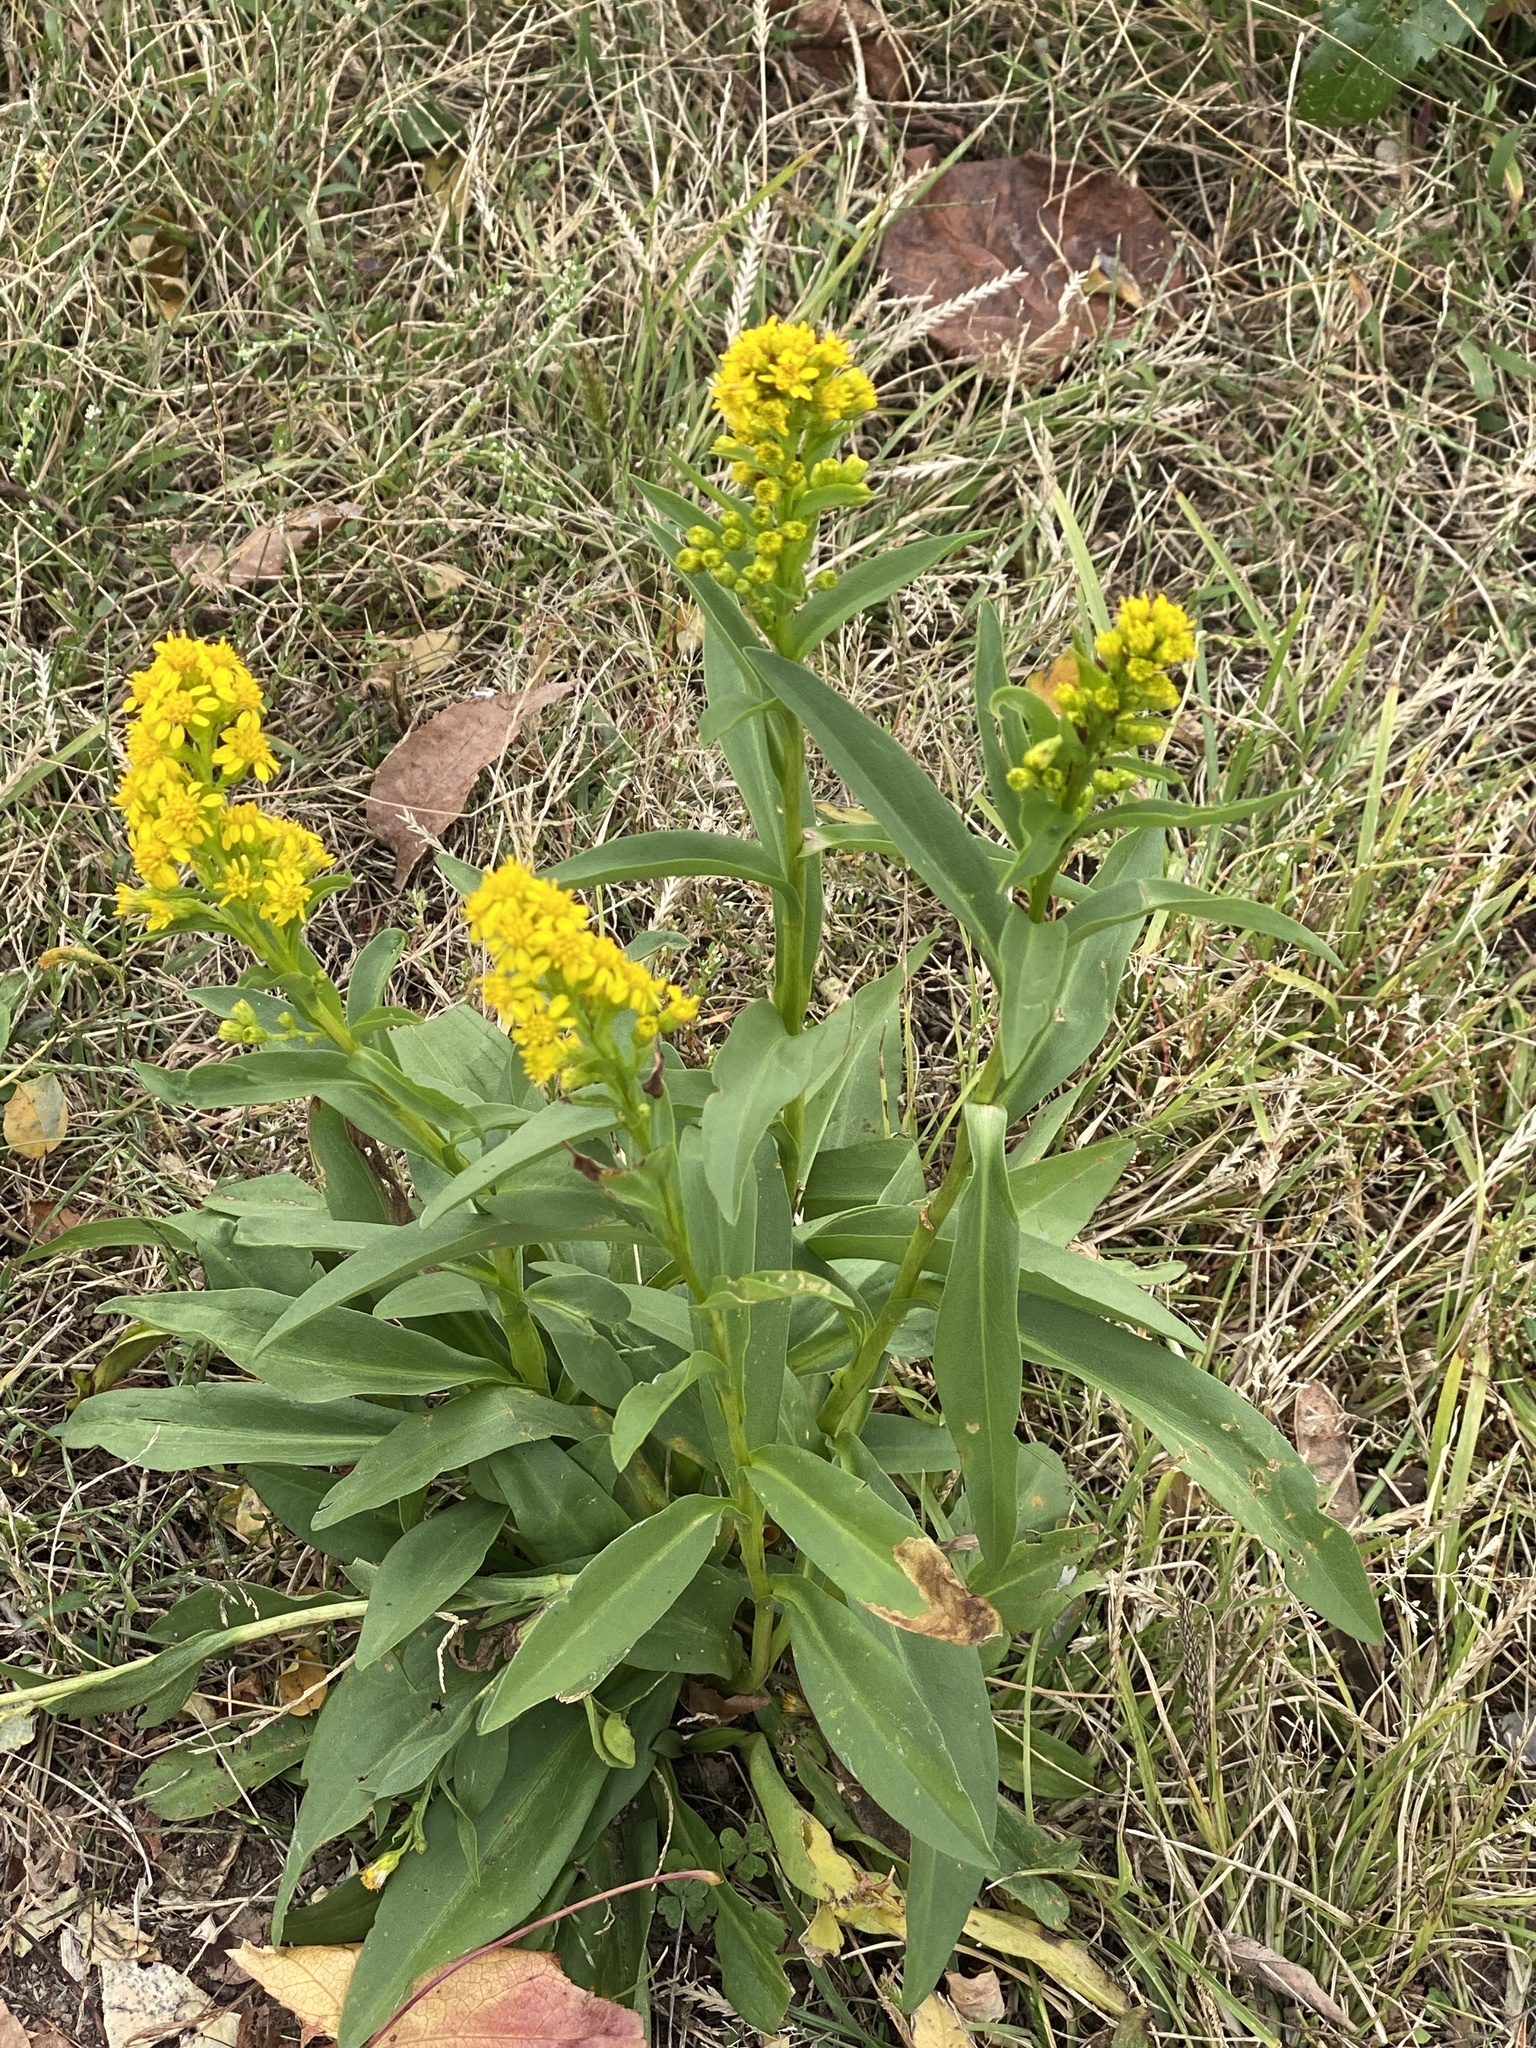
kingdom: Plantae
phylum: Tracheophyta
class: Magnoliopsida
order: Asterales
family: Asteraceae
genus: Solidago
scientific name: Solidago sempervirens
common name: Salt-marsh goldenrod
